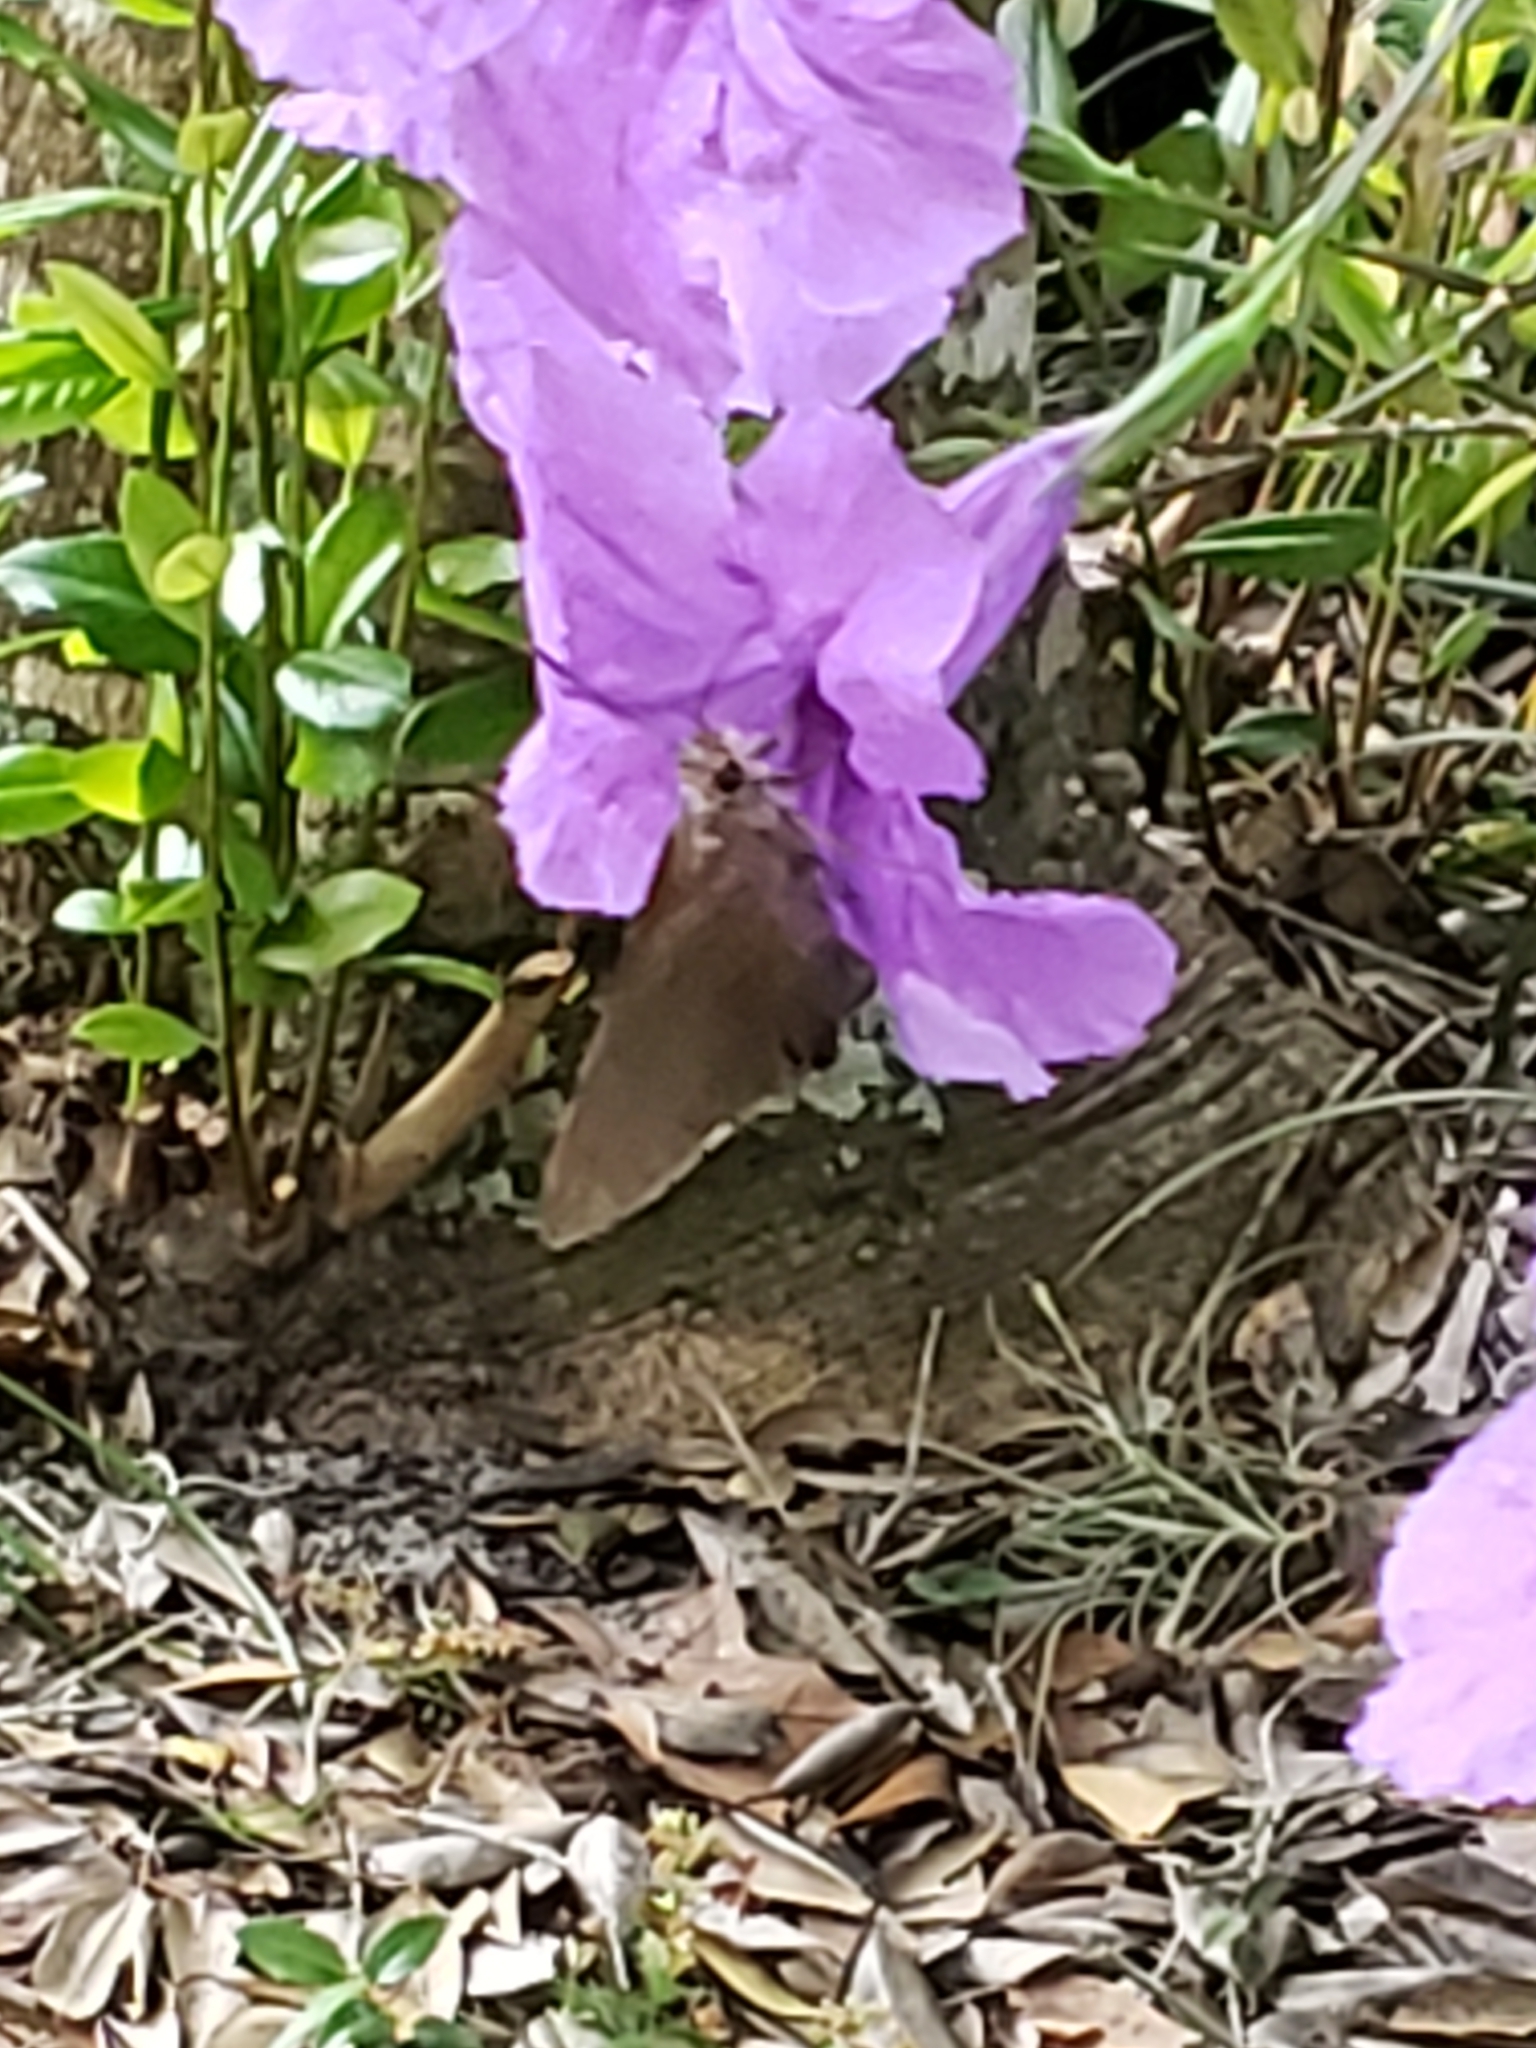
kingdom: Animalia
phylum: Arthropoda
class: Insecta
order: Lepidoptera
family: Hesperiidae
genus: Asbolis
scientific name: Asbolis capucinus
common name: Monk skipper
